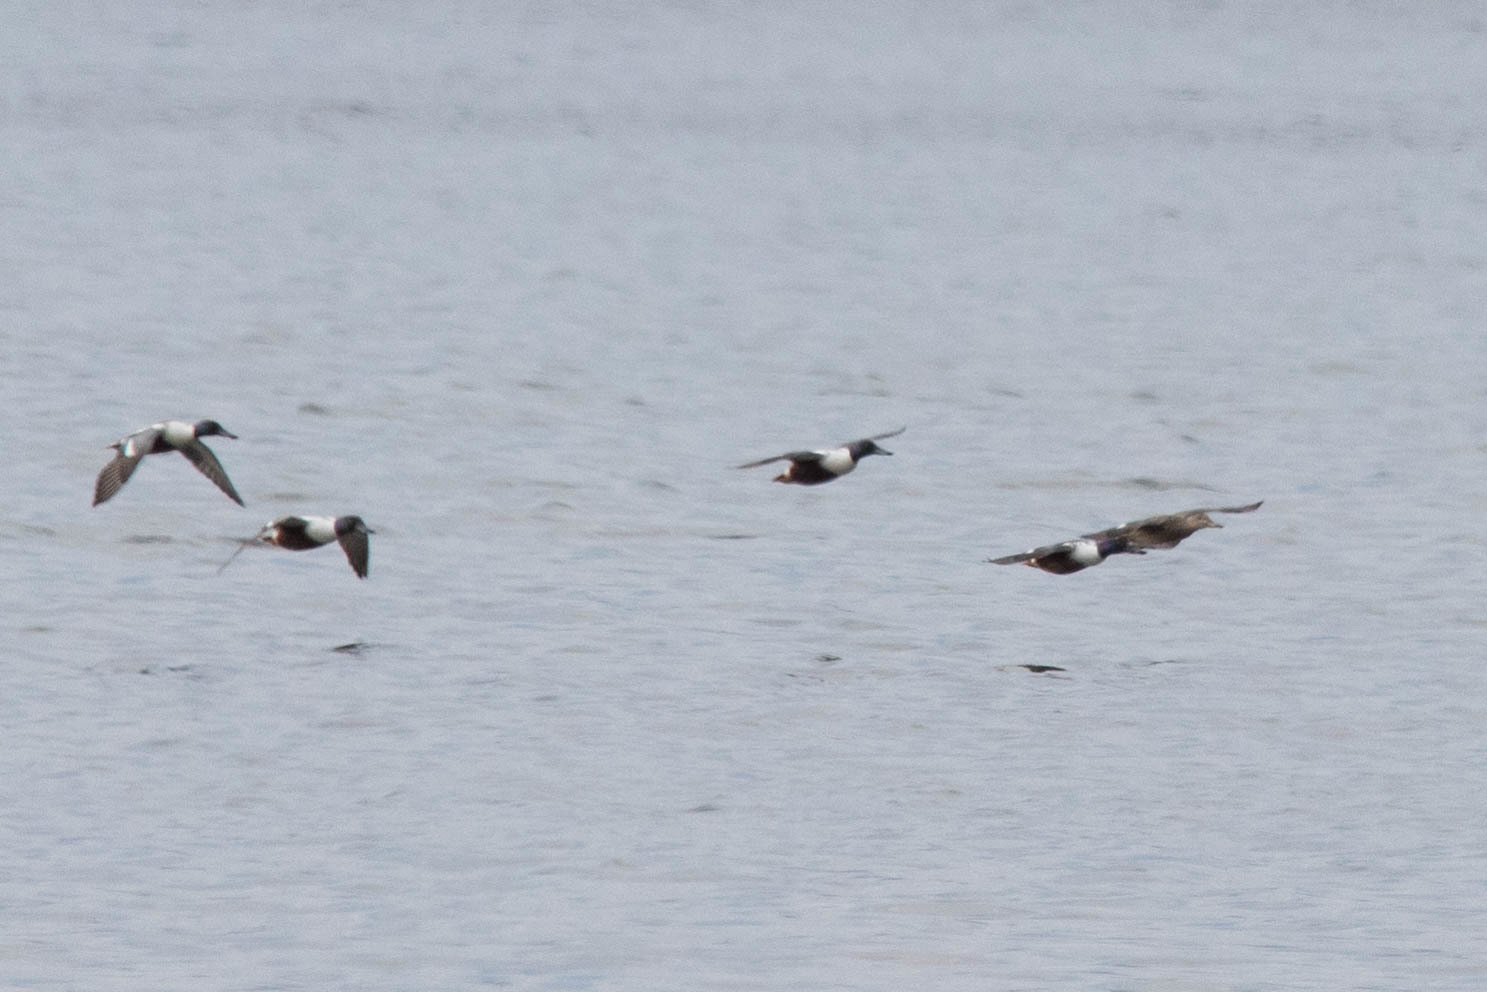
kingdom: Animalia
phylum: Chordata
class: Aves
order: Anseriformes
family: Anatidae
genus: Spatula
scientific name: Spatula clypeata
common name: Northern shoveler
